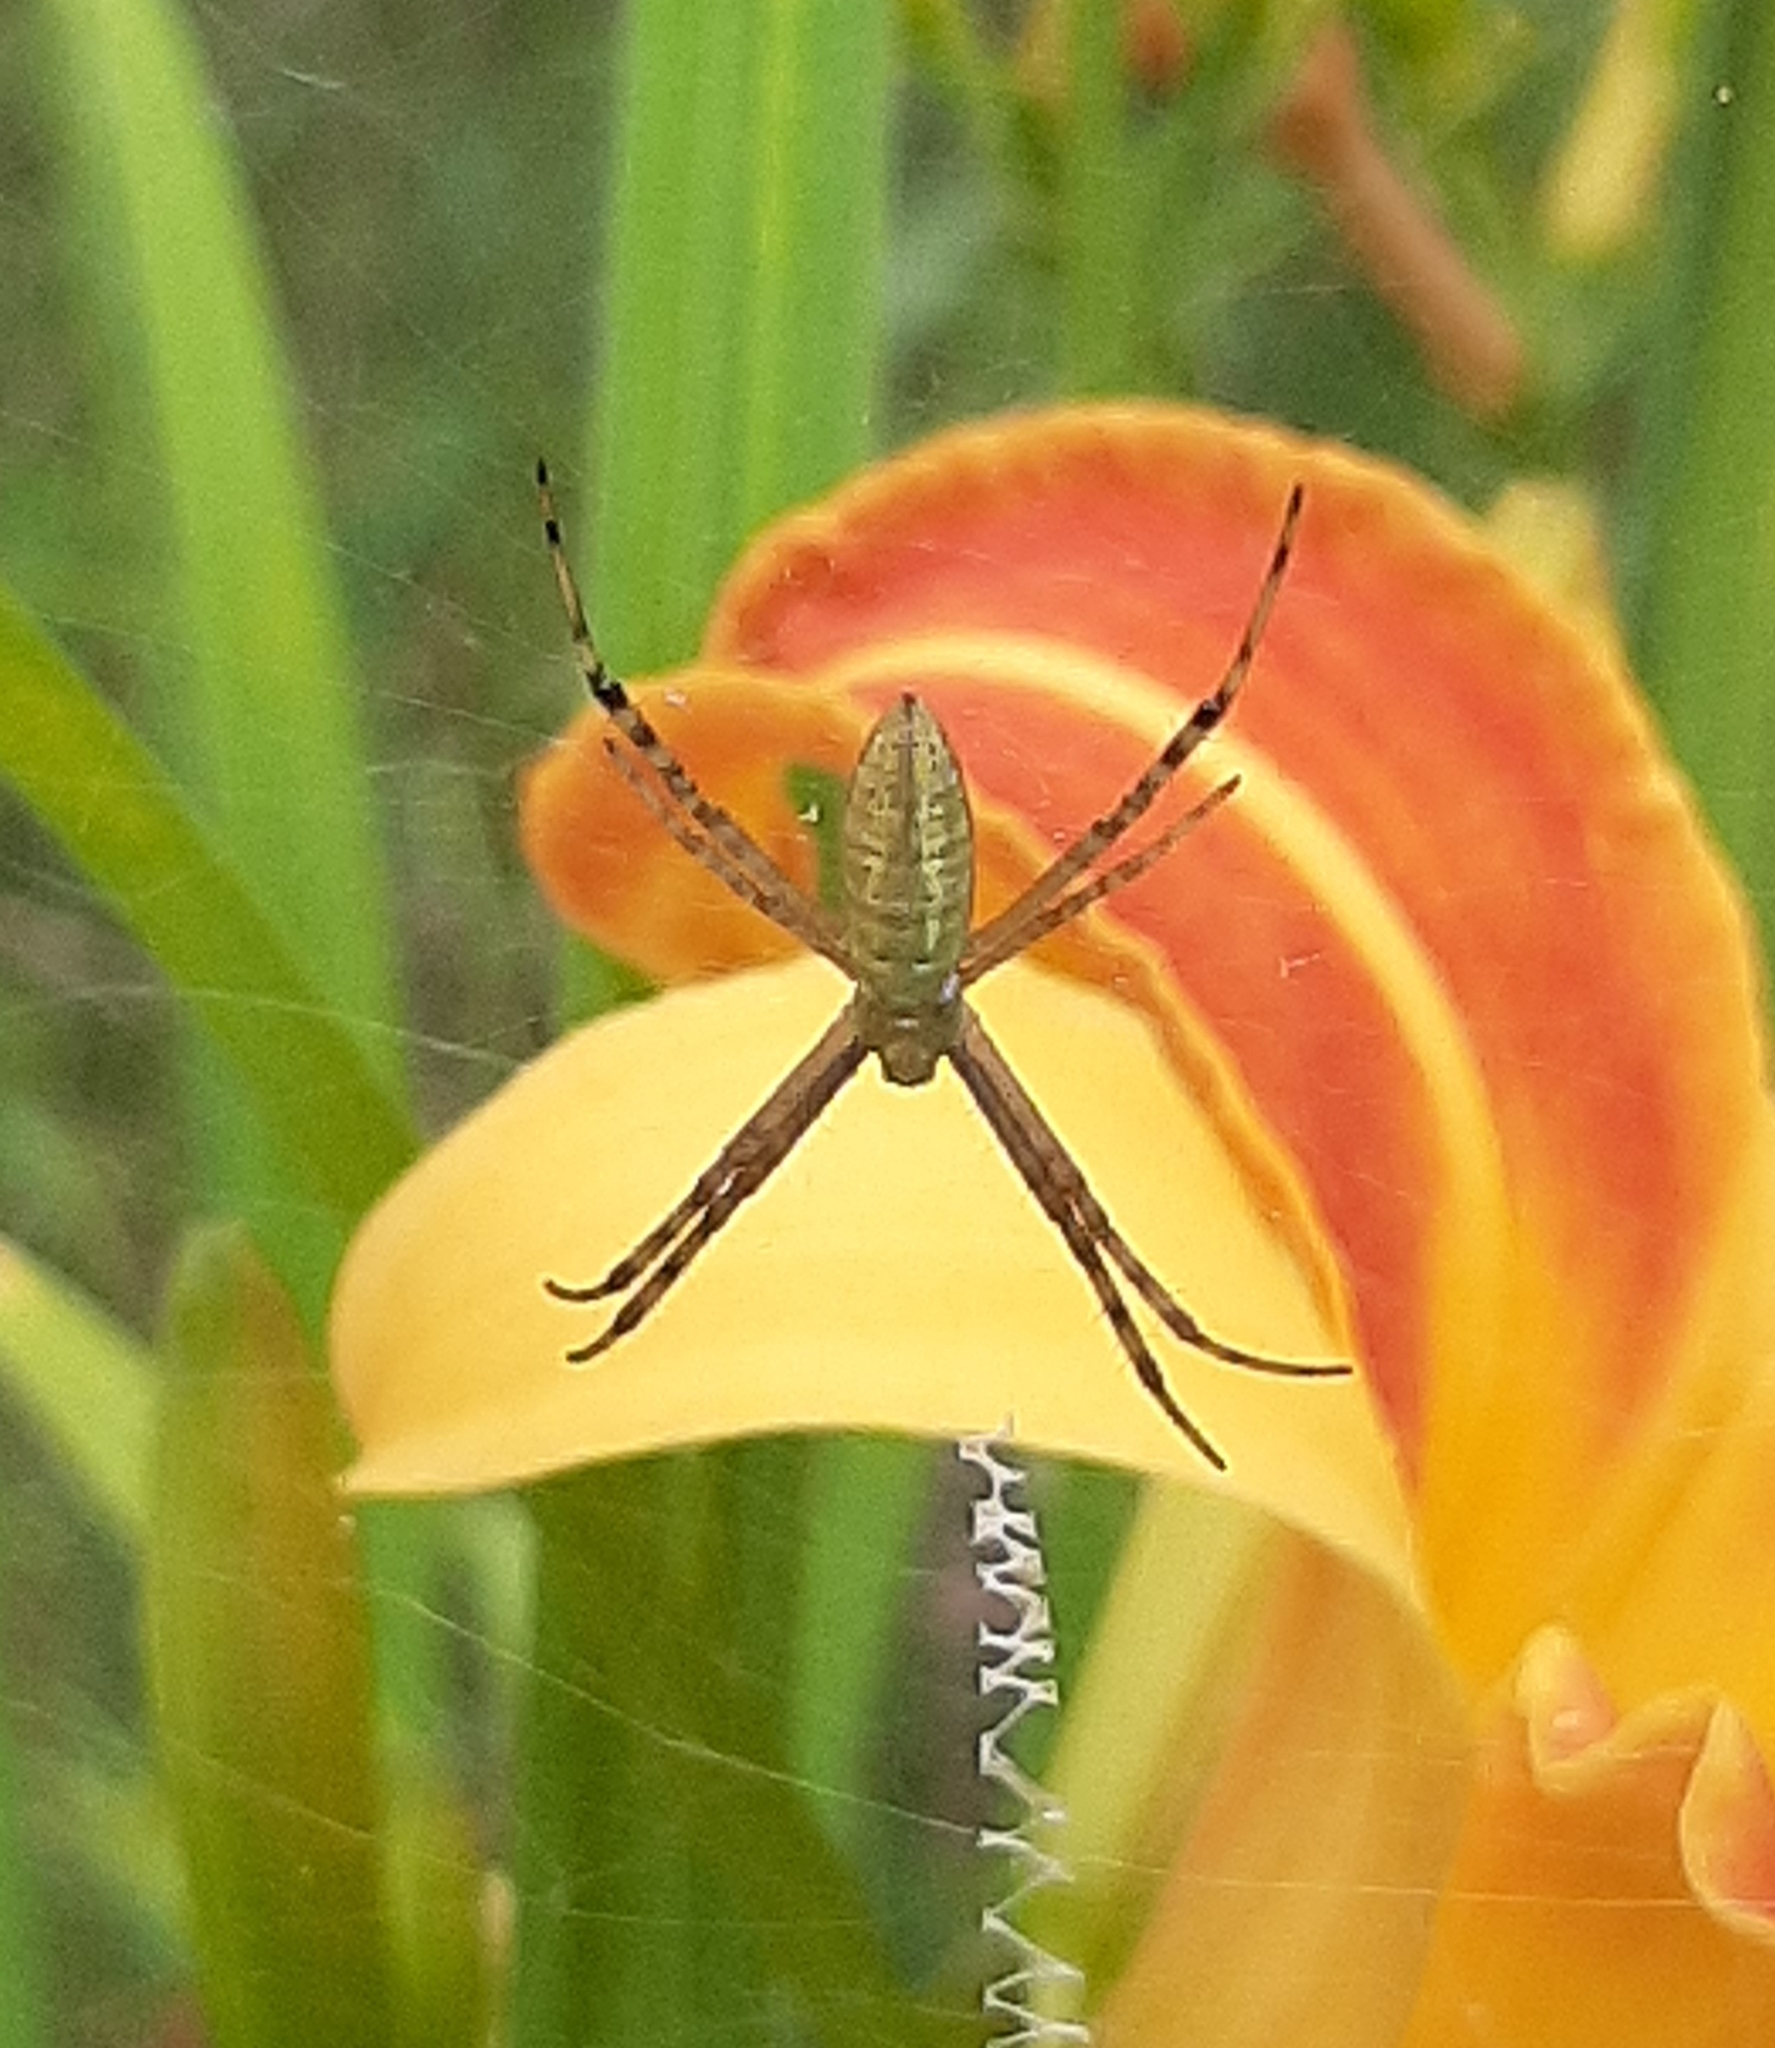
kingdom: Animalia
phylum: Arthropoda
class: Arachnida
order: Araneae
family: Araneidae
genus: Argiope
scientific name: Argiope trifasciata
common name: Banded garden spider
